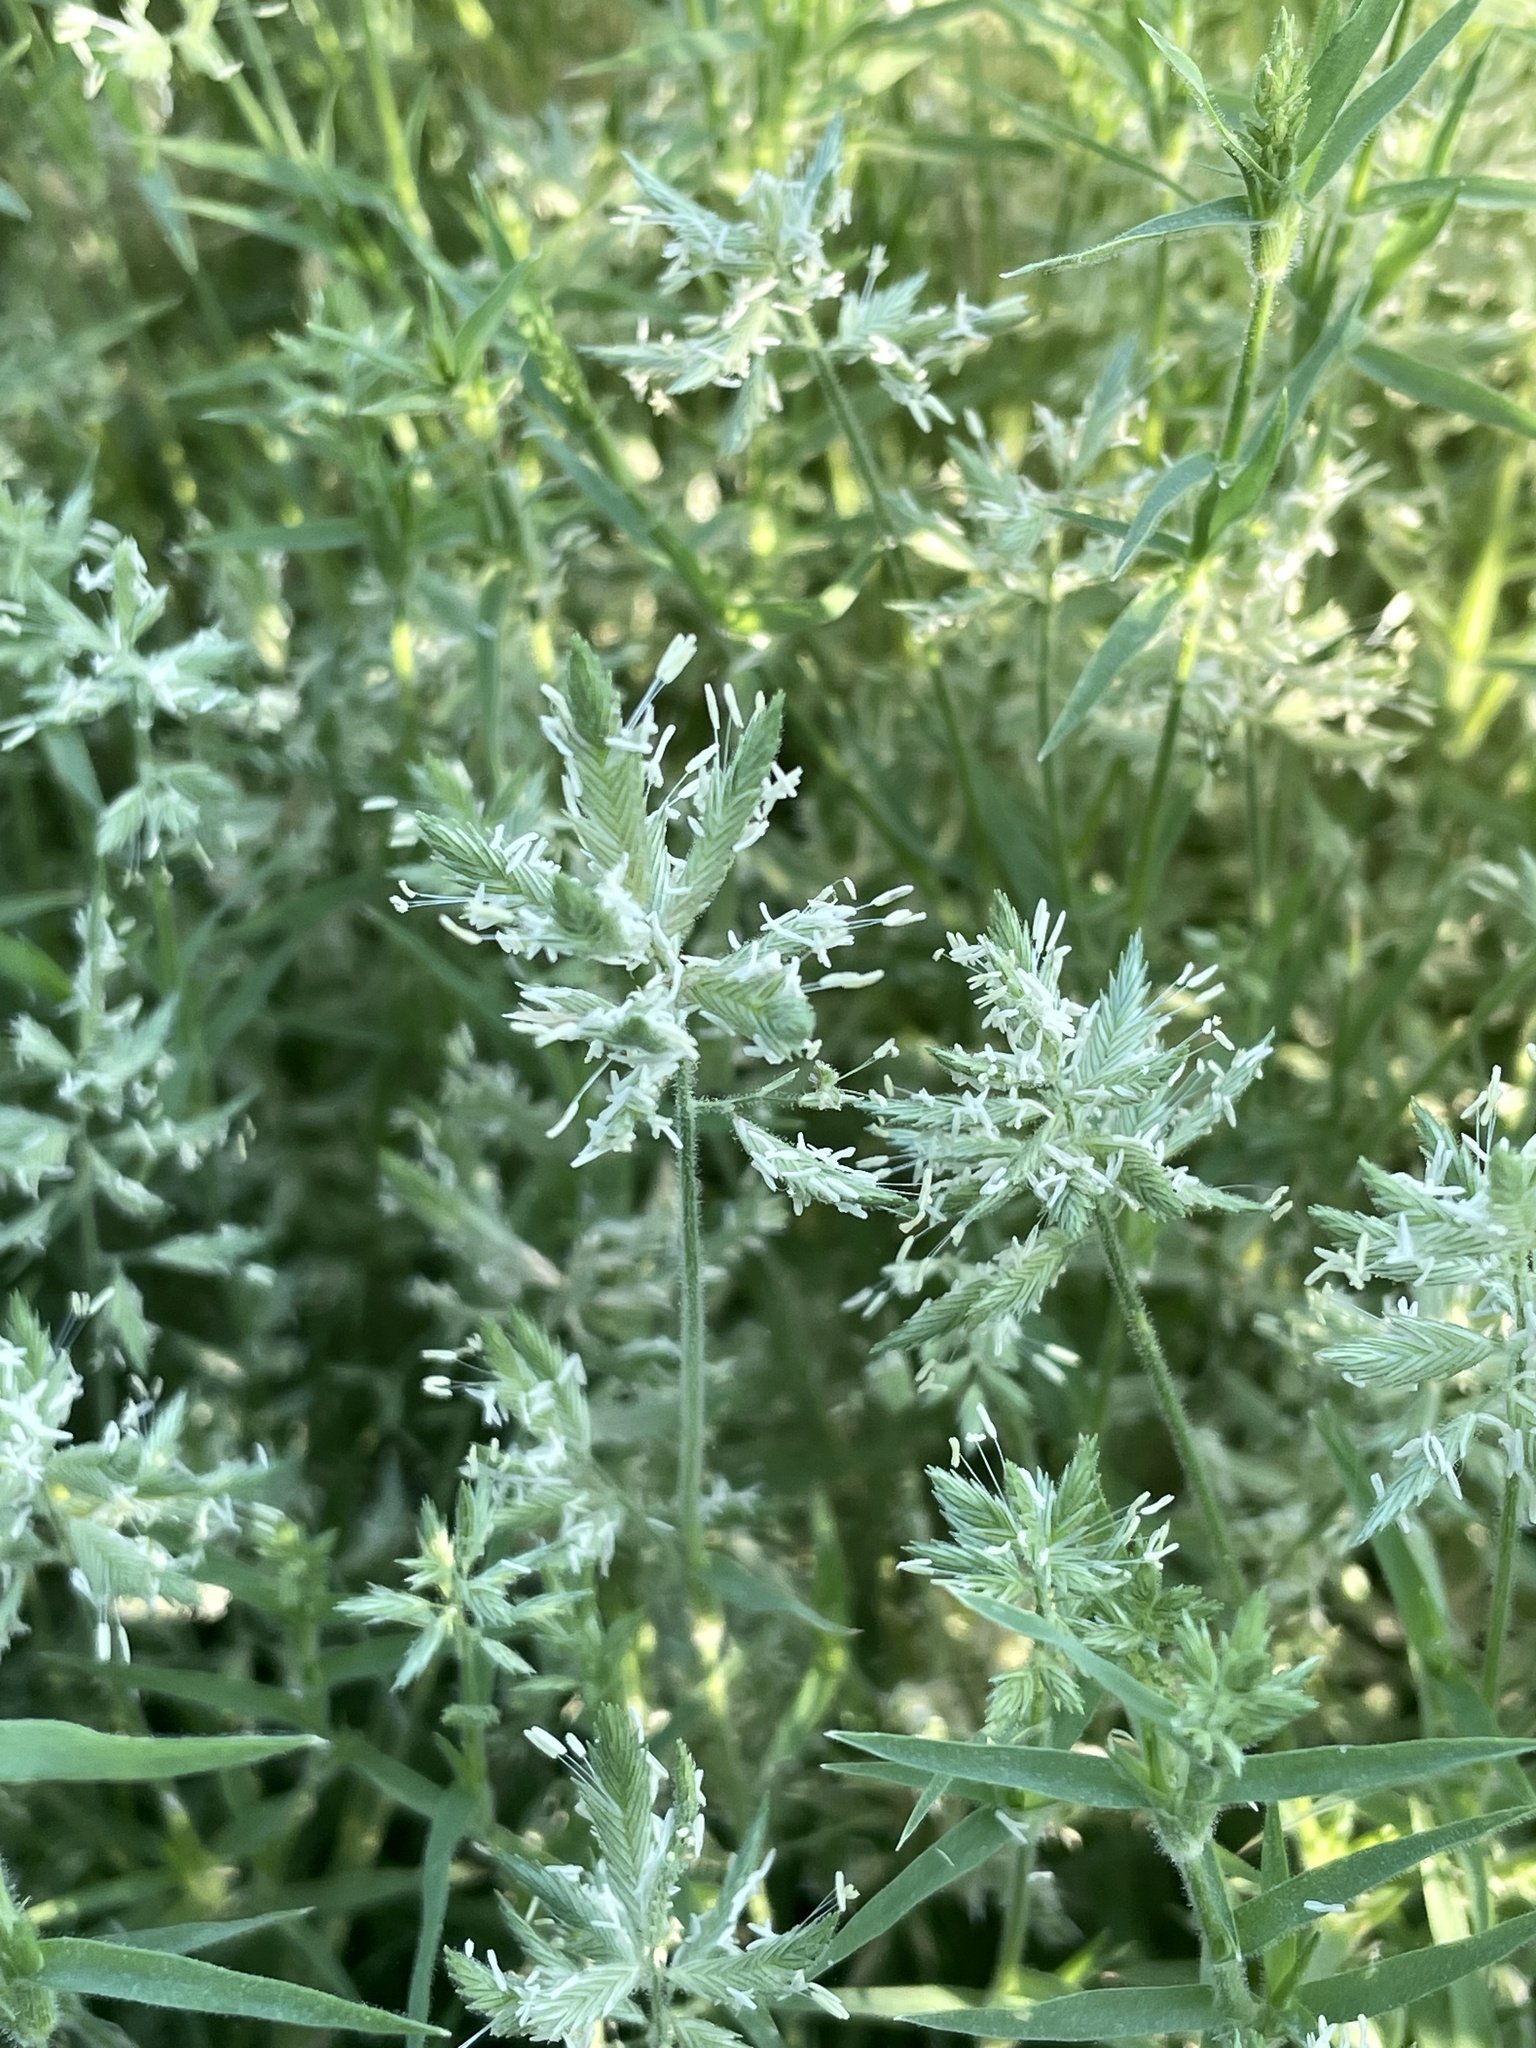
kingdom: Plantae
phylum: Tracheophyta
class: Liliopsida
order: Poales
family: Poaceae
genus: Eragrostis
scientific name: Eragrostis reptans
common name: Creeping love grass
